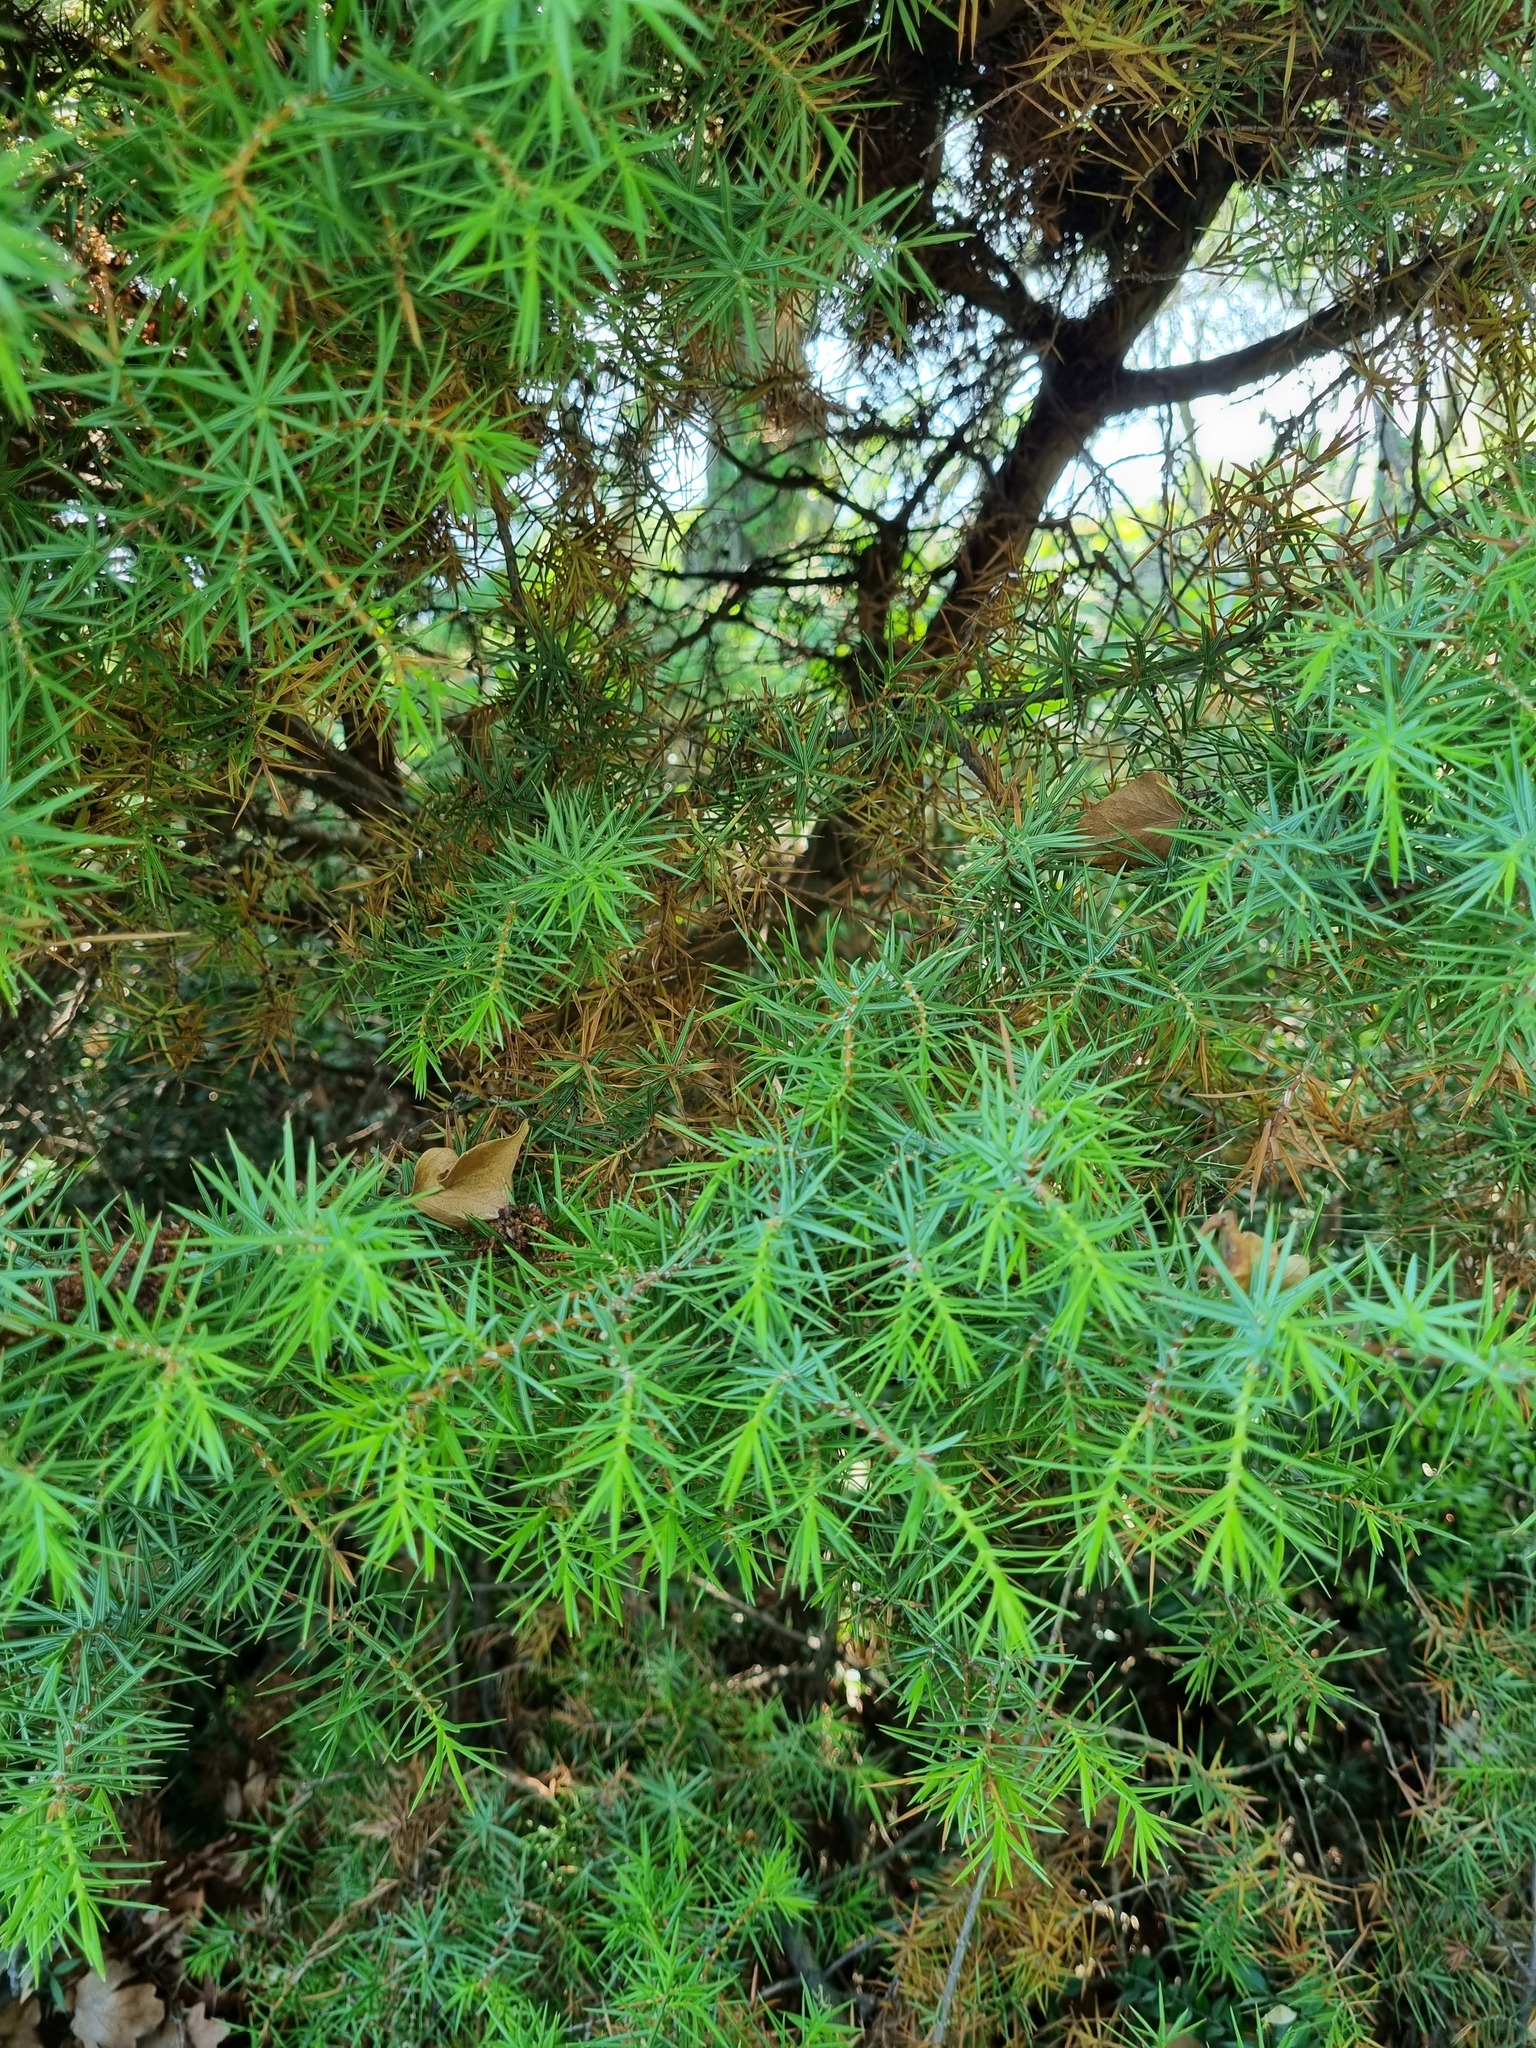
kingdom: Plantae
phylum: Tracheophyta
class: Pinopsida
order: Pinales
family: Cupressaceae
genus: Juniperus
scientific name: Juniperus oxycedrus
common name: Prickly juniper
